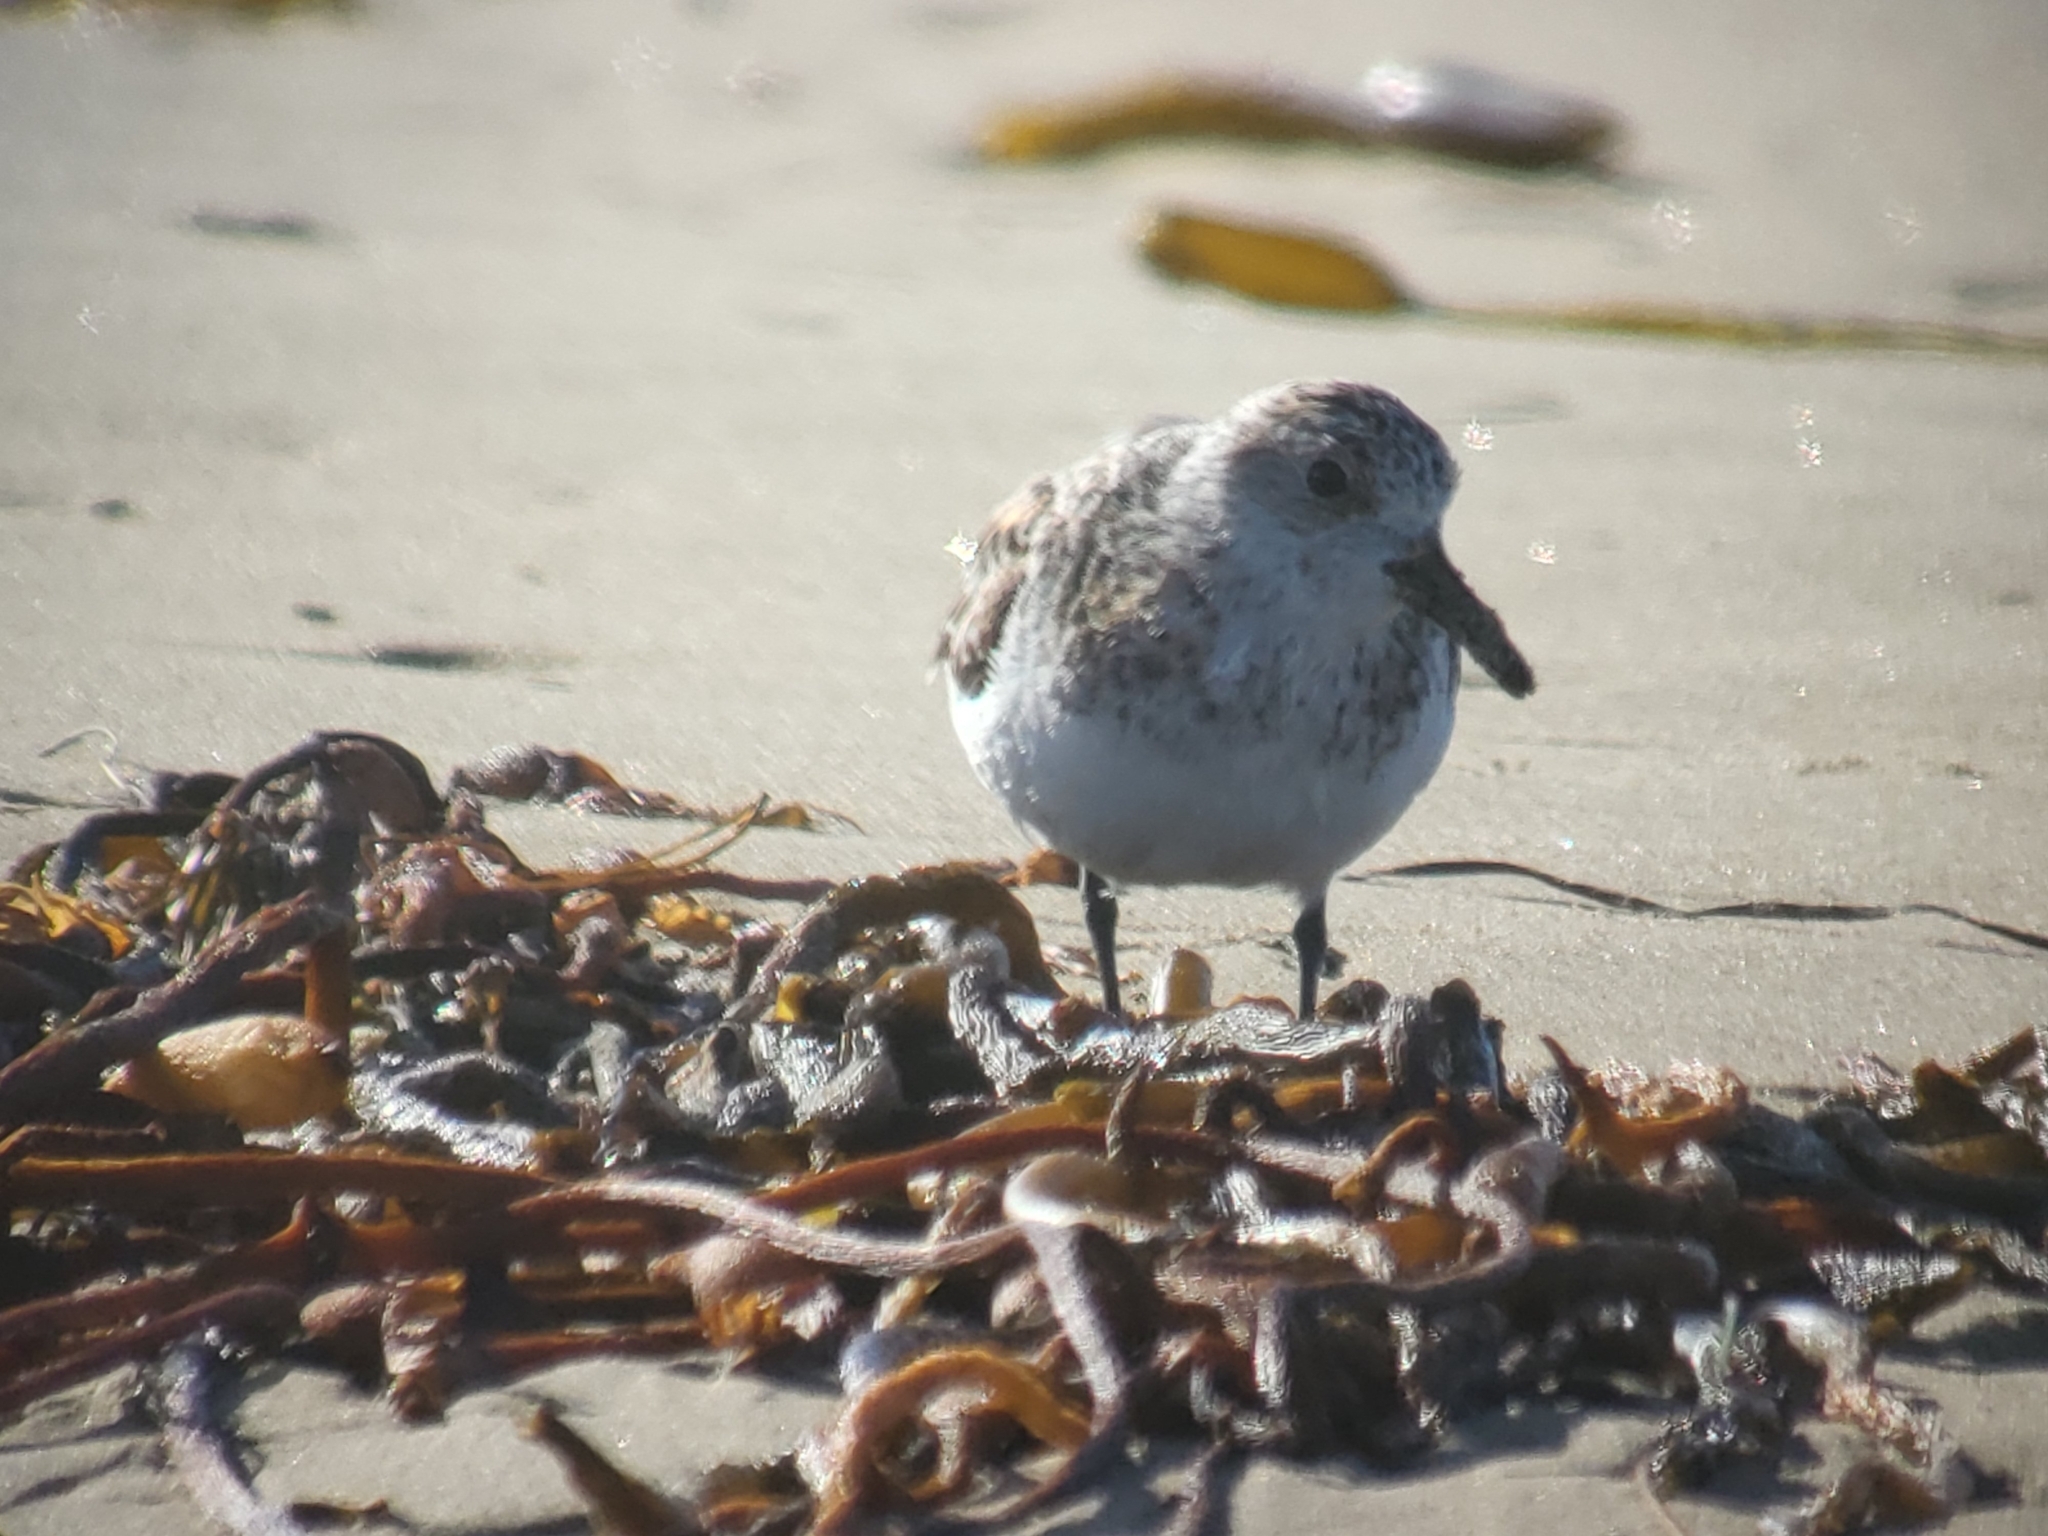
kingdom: Animalia
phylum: Chordata
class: Aves
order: Charadriiformes
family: Scolopacidae
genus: Calidris
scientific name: Calidris alba
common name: Sanderling
